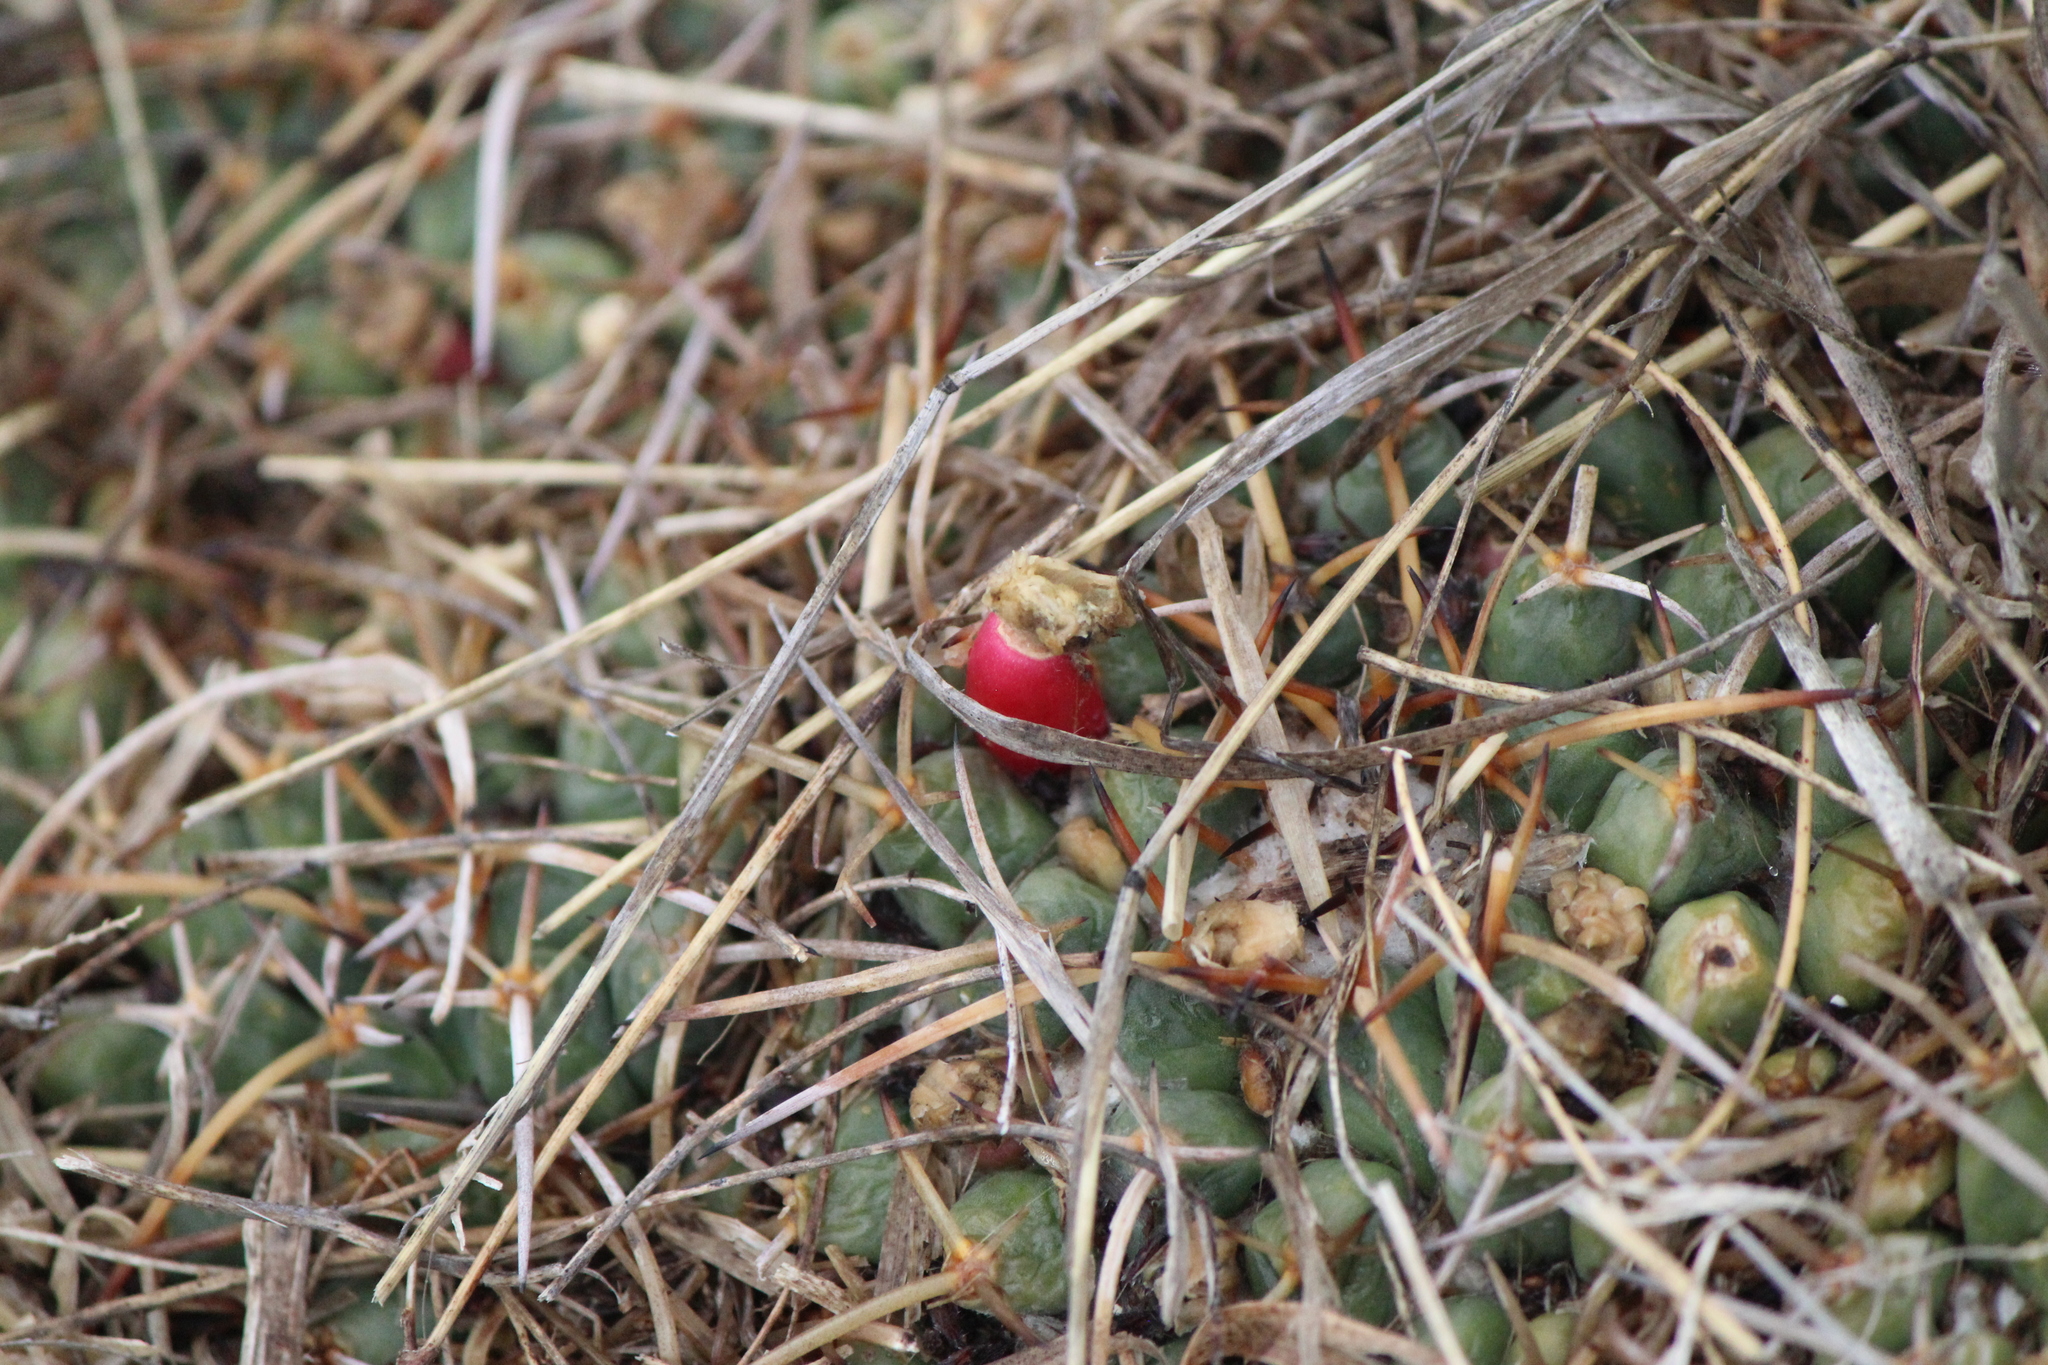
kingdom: Plantae
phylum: Tracheophyta
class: Magnoliopsida
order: Caryophyllales
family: Cactaceae
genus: Mammillaria
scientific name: Mammillaria magnimamma
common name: Mexican pincushion
